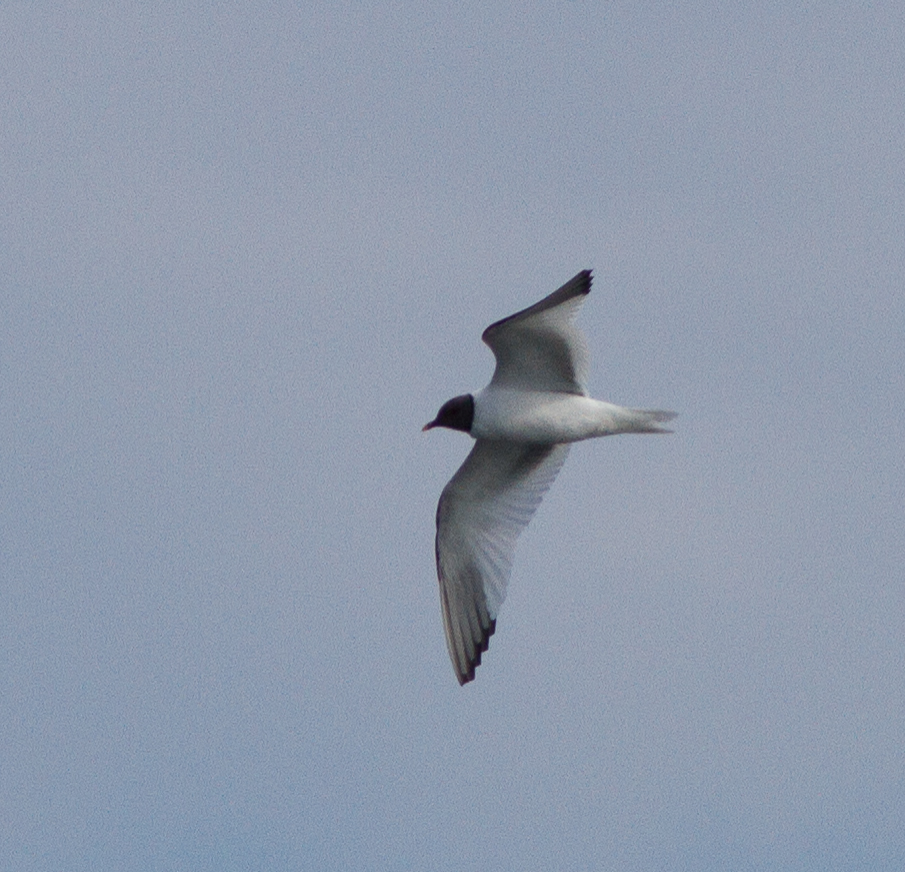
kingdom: Animalia
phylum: Chordata
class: Aves
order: Charadriiformes
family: Laridae
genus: Xema
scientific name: Xema sabini
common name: Sabine's gull
